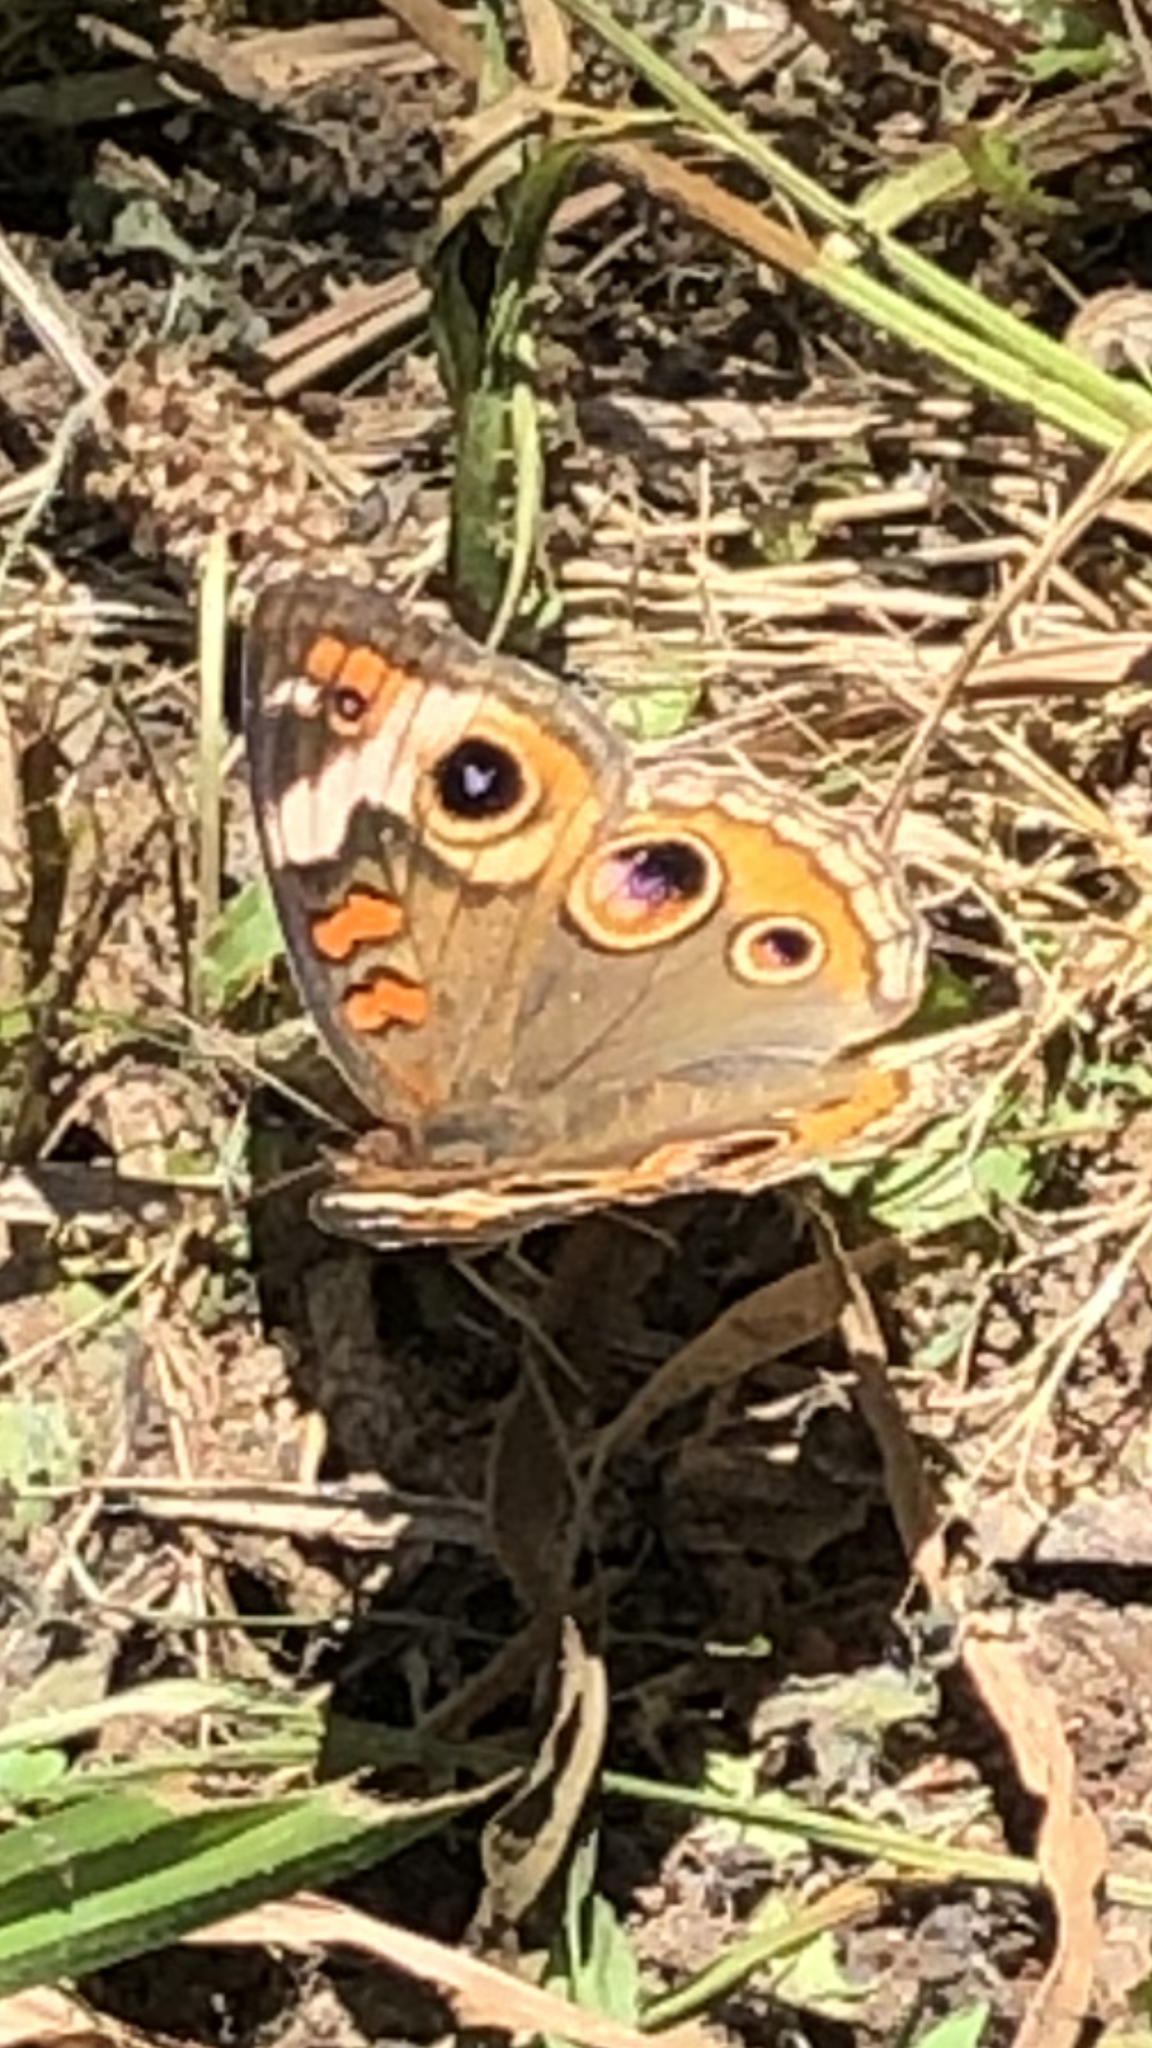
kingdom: Animalia
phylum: Arthropoda
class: Insecta
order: Lepidoptera
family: Nymphalidae
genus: Junonia
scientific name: Junonia coenia
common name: Common buckeye
